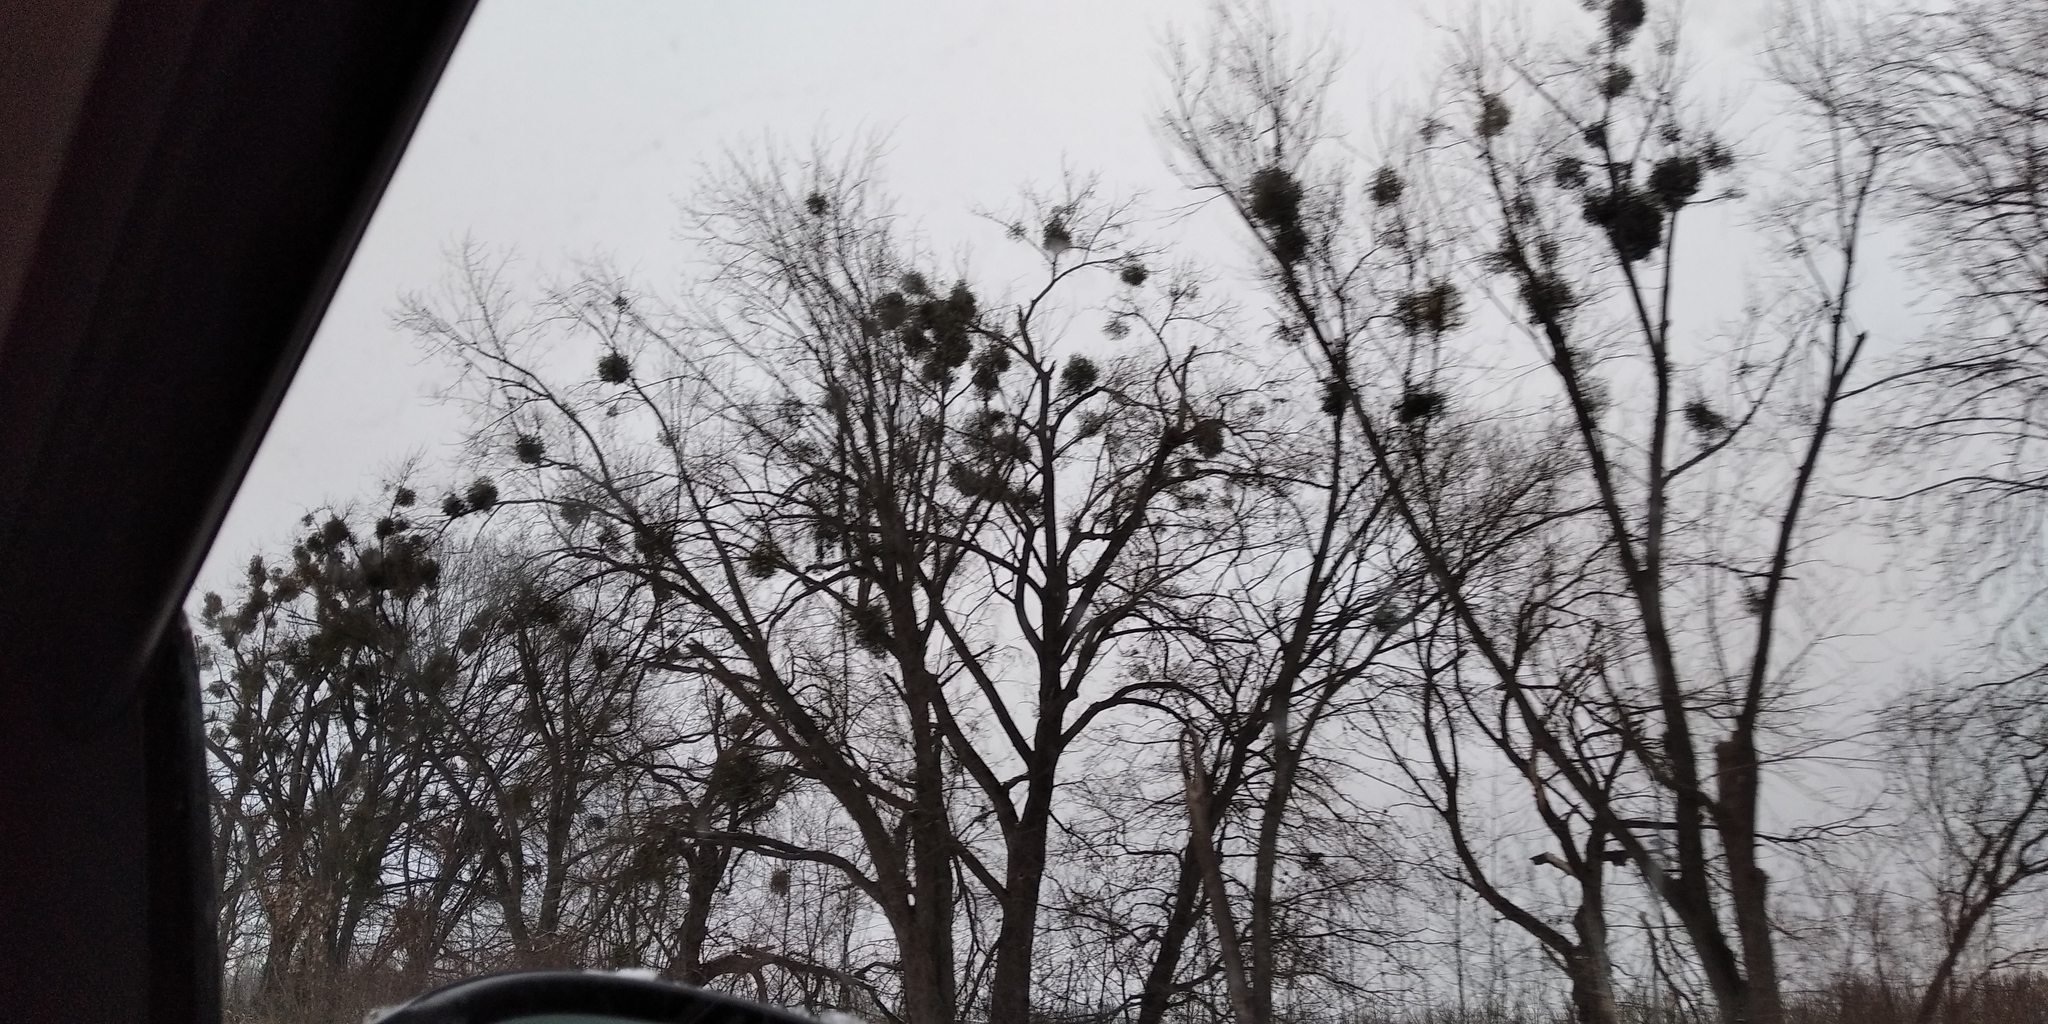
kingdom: Plantae
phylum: Tracheophyta
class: Magnoliopsida
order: Santalales
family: Viscaceae
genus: Viscum
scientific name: Viscum album
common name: Mistletoe
